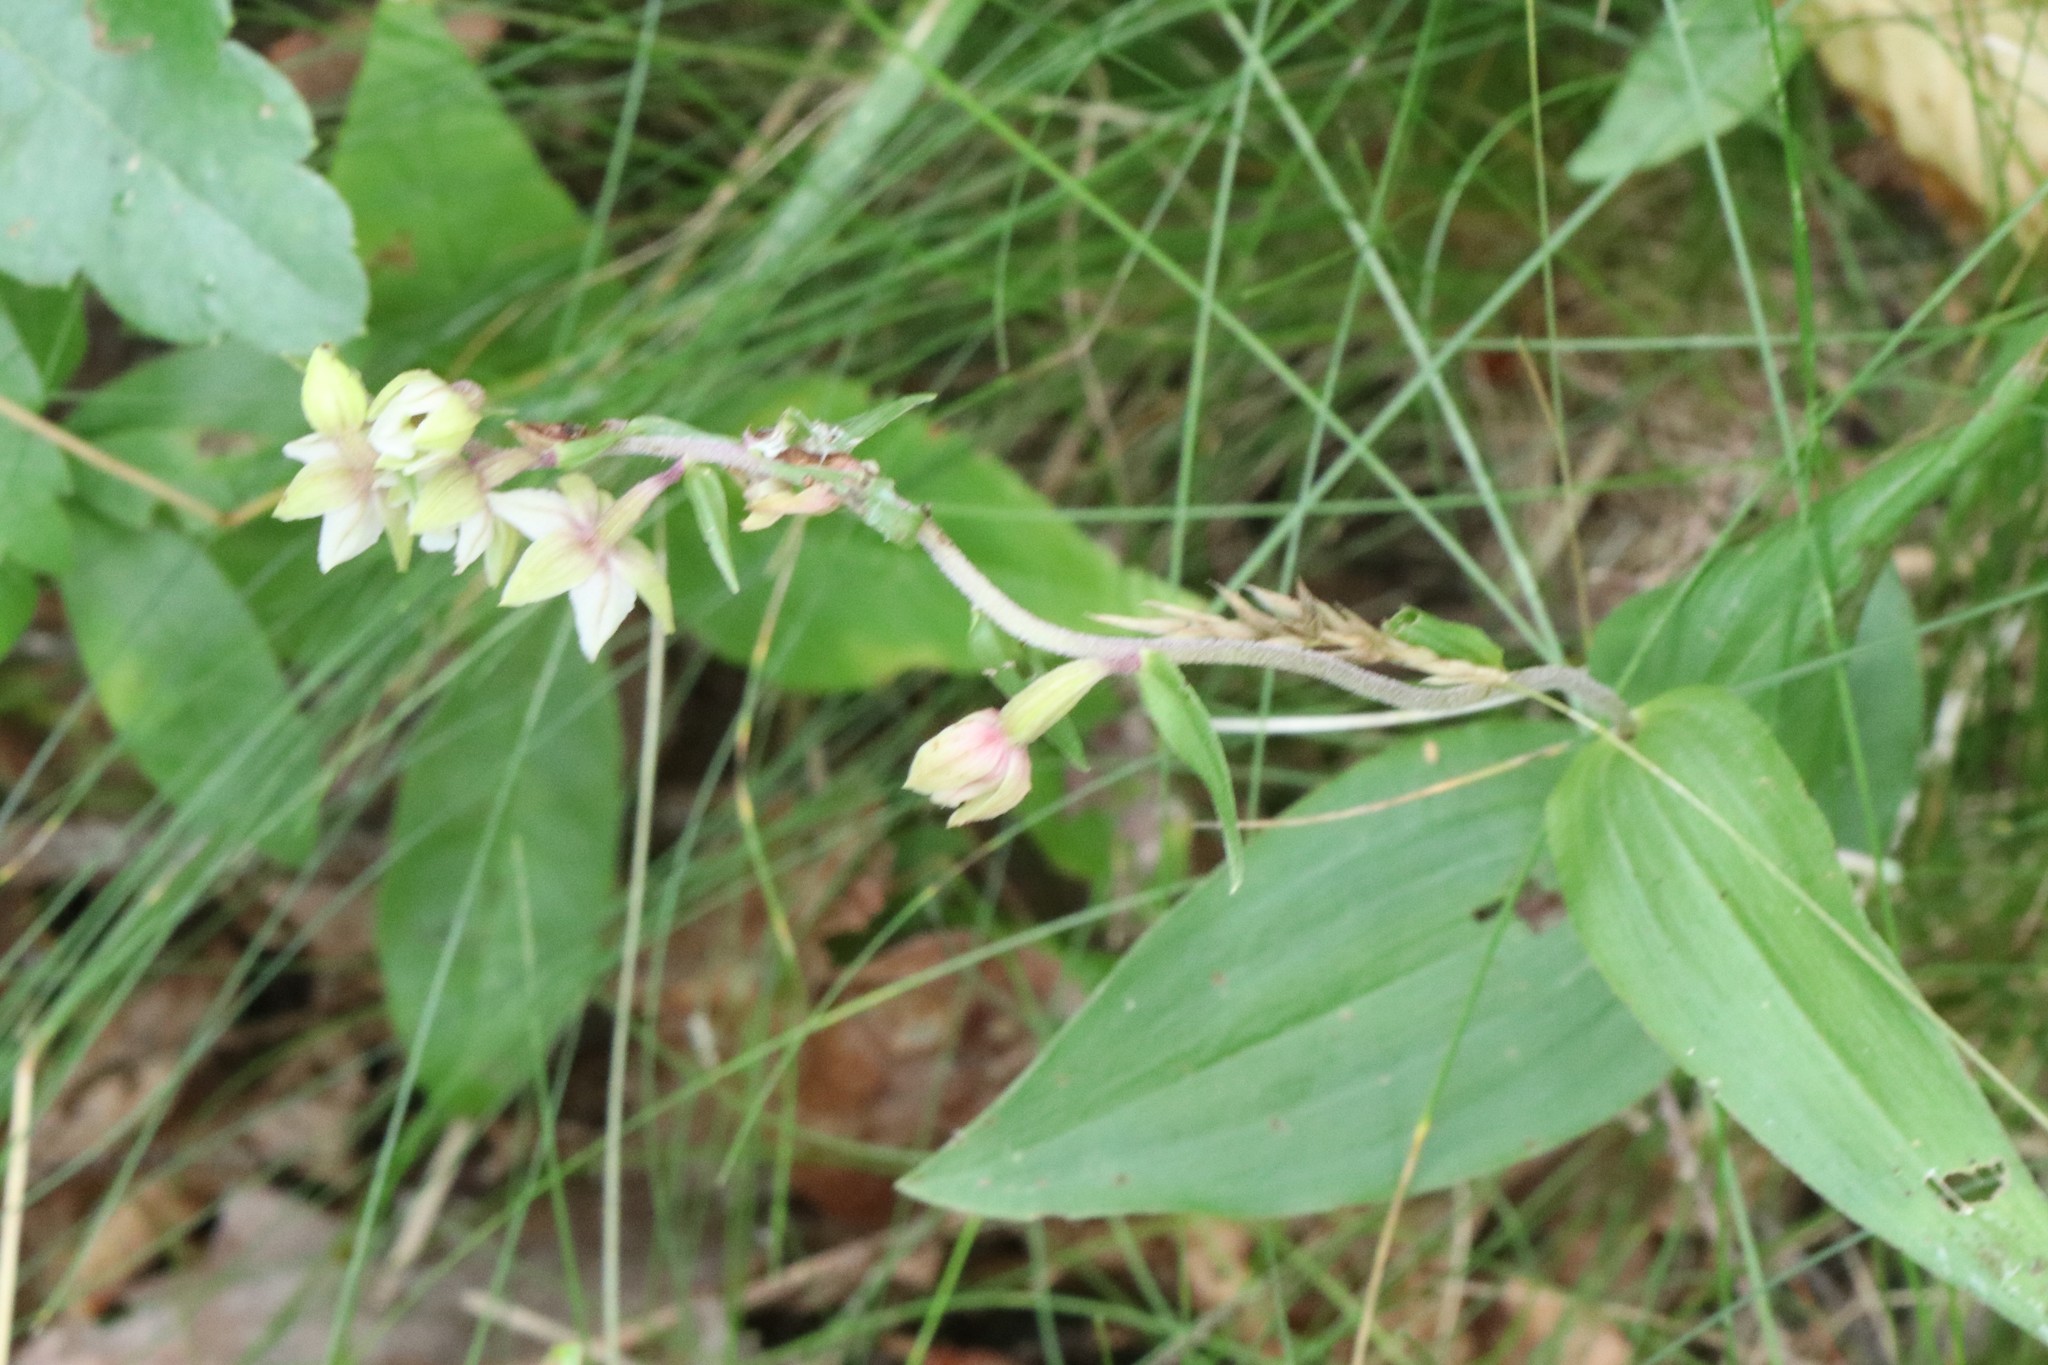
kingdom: Plantae
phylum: Tracheophyta
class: Liliopsida
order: Asparagales
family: Orchidaceae
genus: Epipactis
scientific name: Epipactis helleborine
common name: Broad-leaved helleborine
